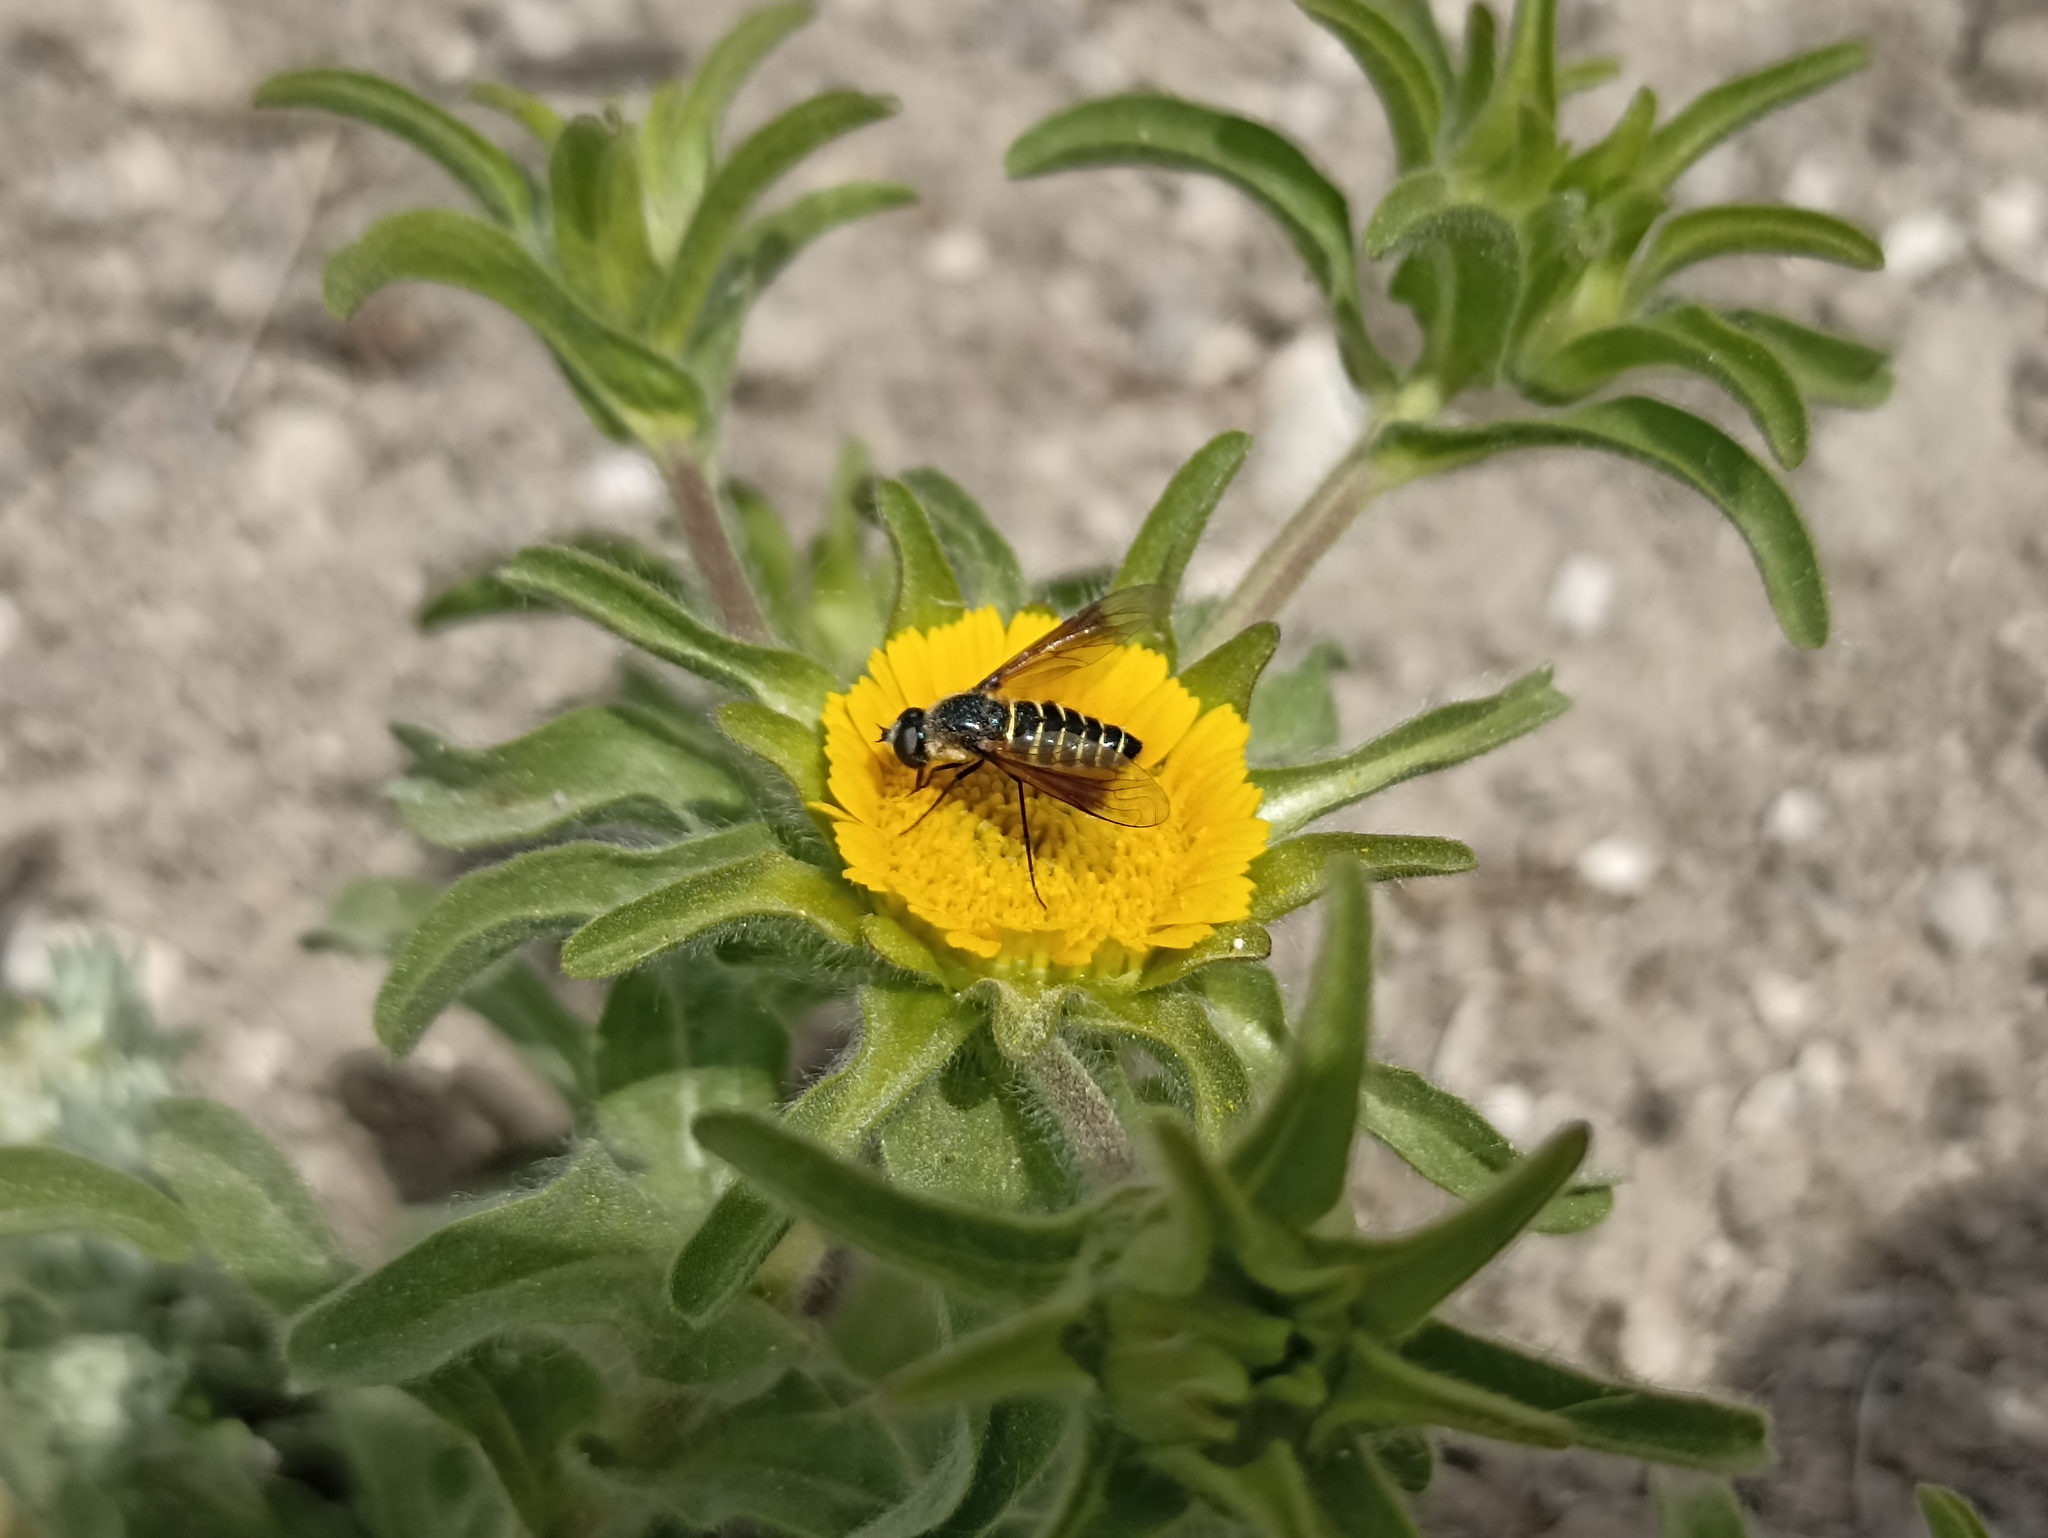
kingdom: Plantae
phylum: Tracheophyta
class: Magnoliopsida
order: Asterales
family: Asteraceae
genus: Asteriscus
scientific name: Asteriscus aquaticus
